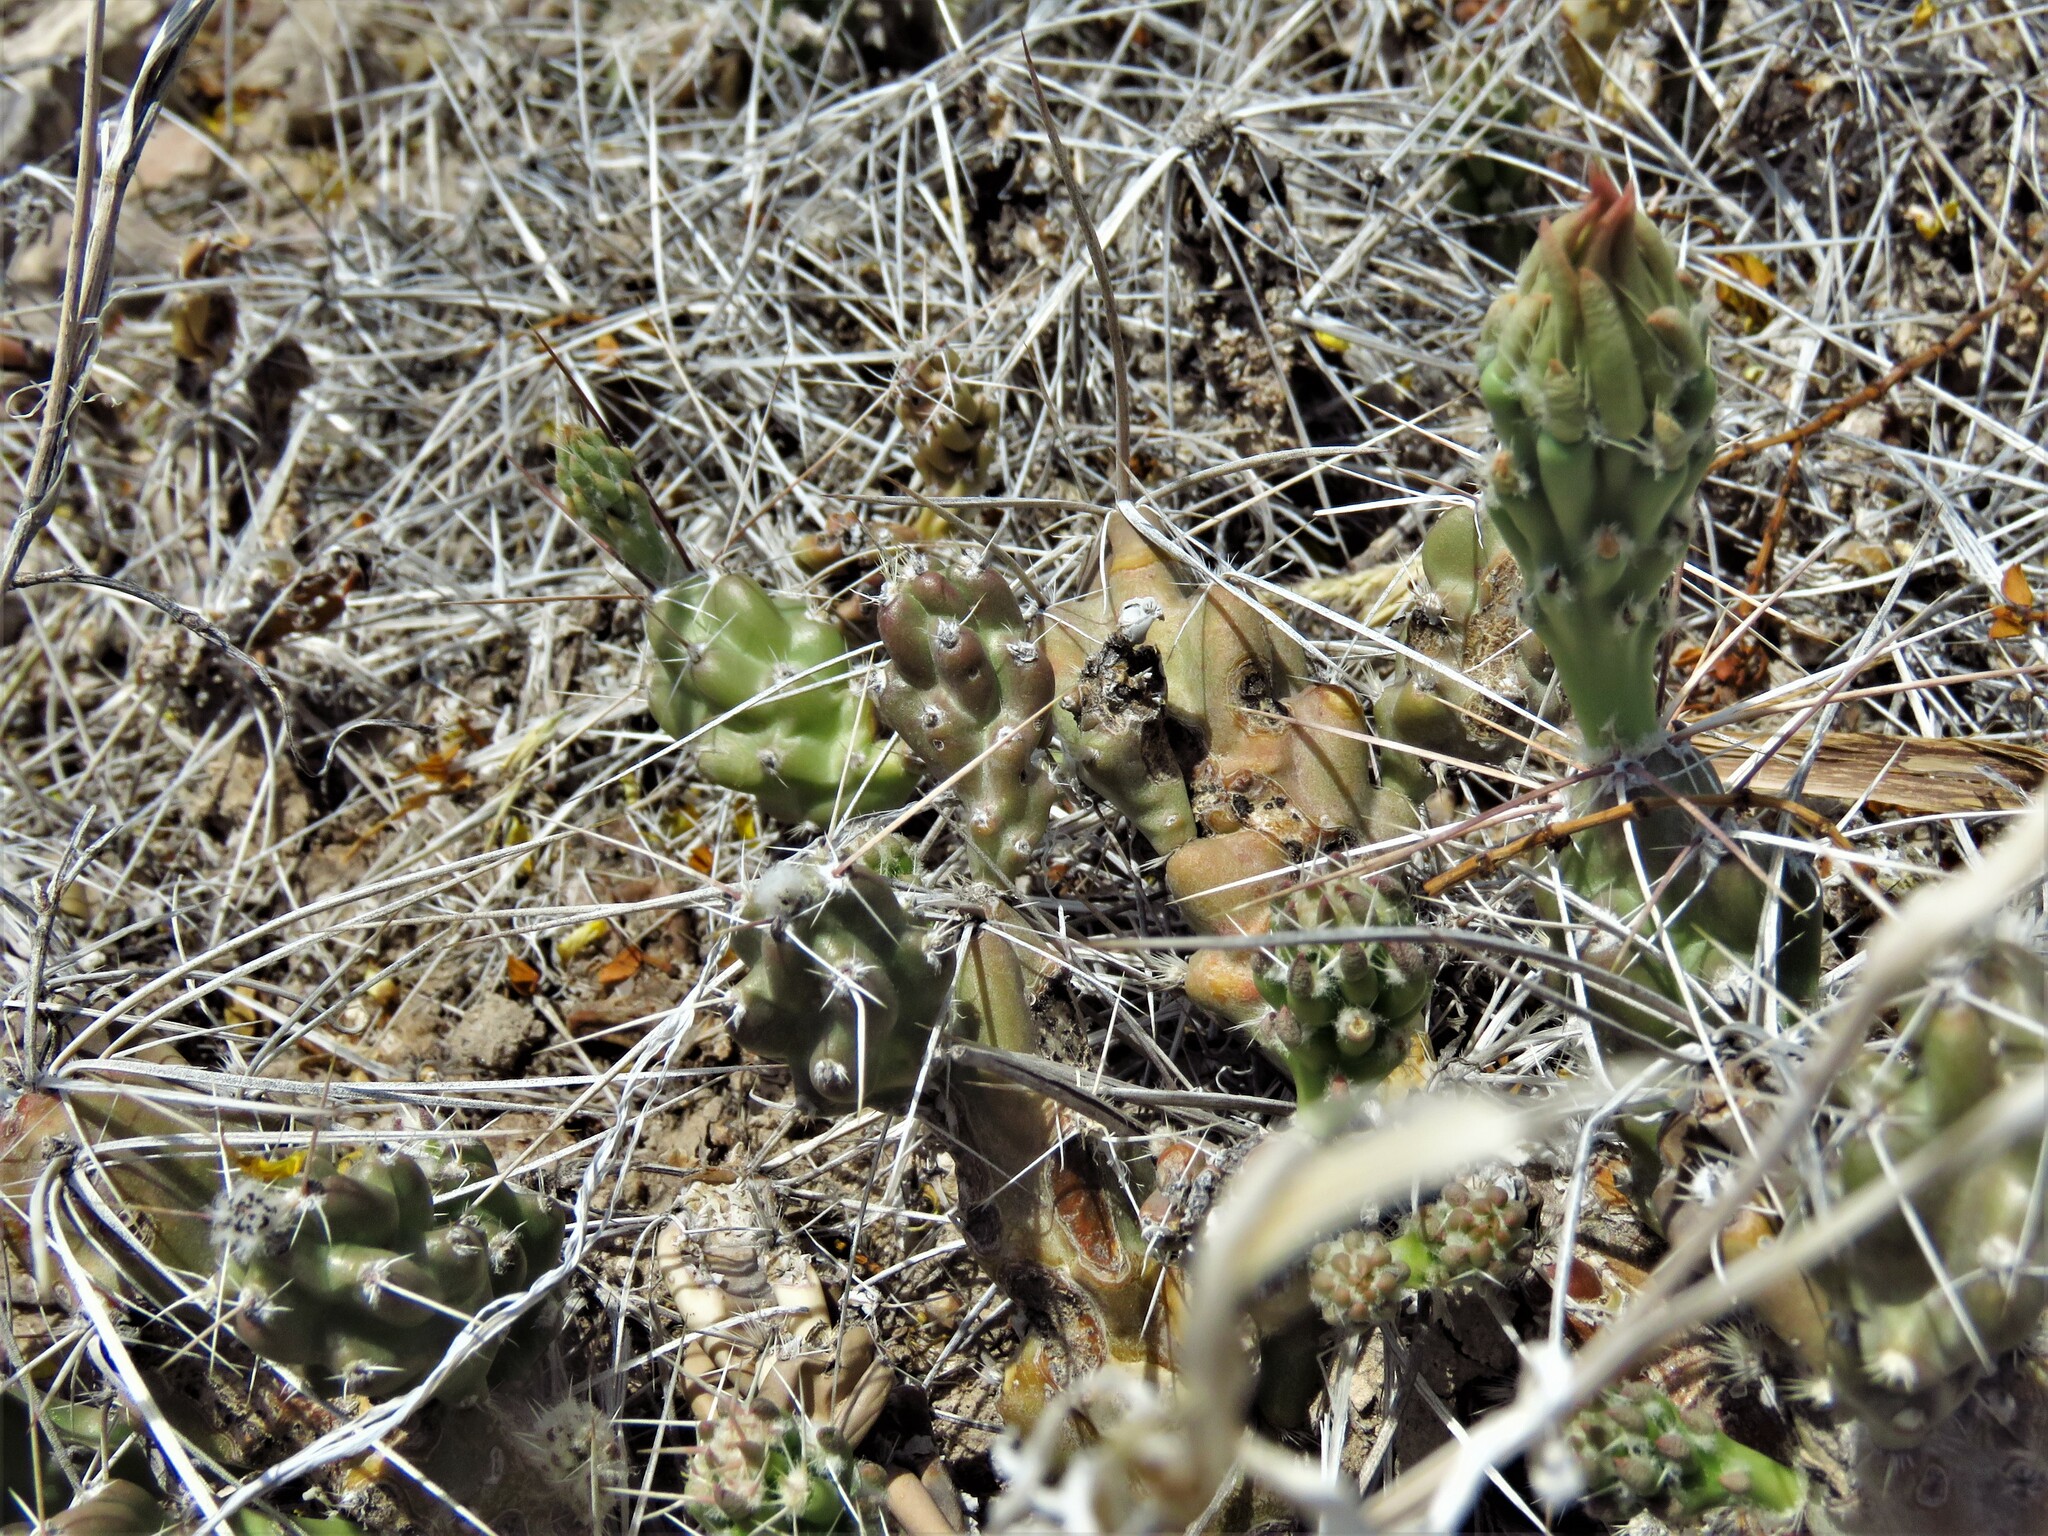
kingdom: Plantae
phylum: Tracheophyta
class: Magnoliopsida
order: Caryophyllales
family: Cactaceae
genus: Grusonia
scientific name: Grusonia aggeria
